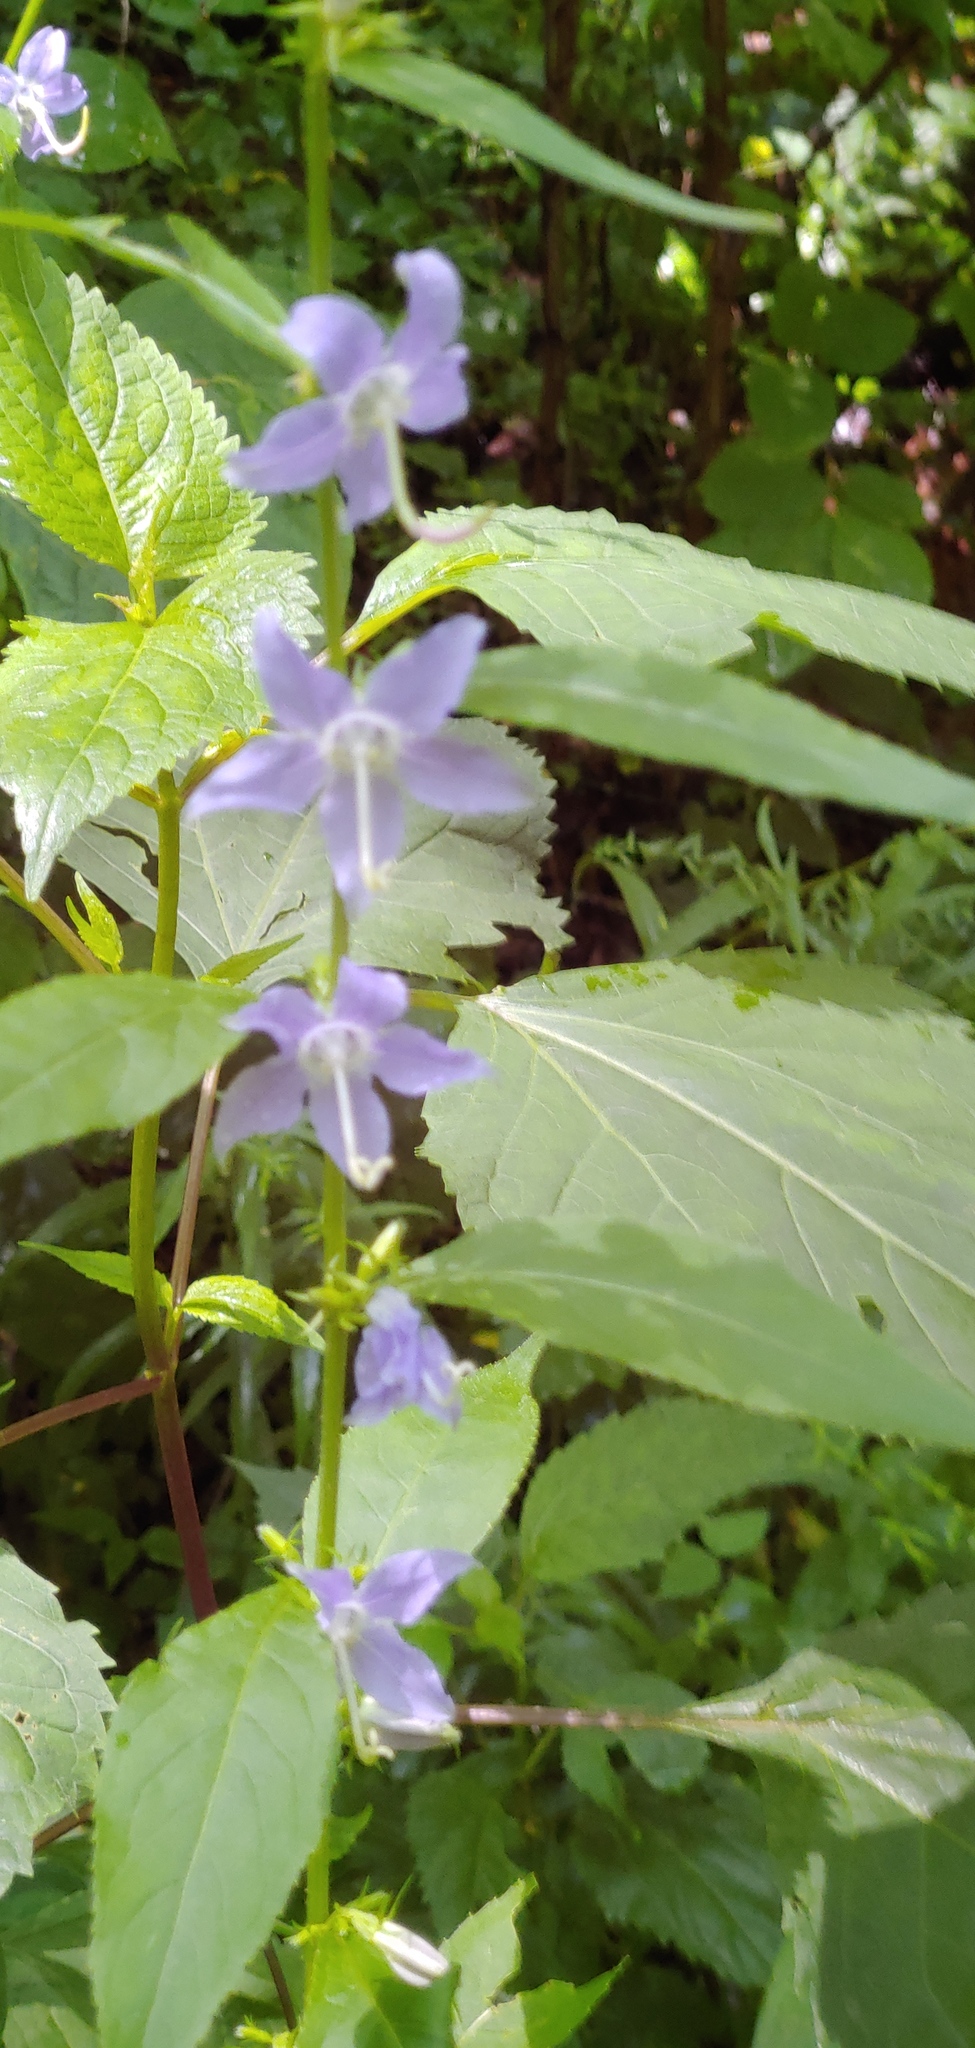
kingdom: Plantae
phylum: Tracheophyta
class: Magnoliopsida
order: Asterales
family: Campanulaceae
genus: Campanulastrum
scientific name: Campanulastrum americanum
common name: American bellflower
